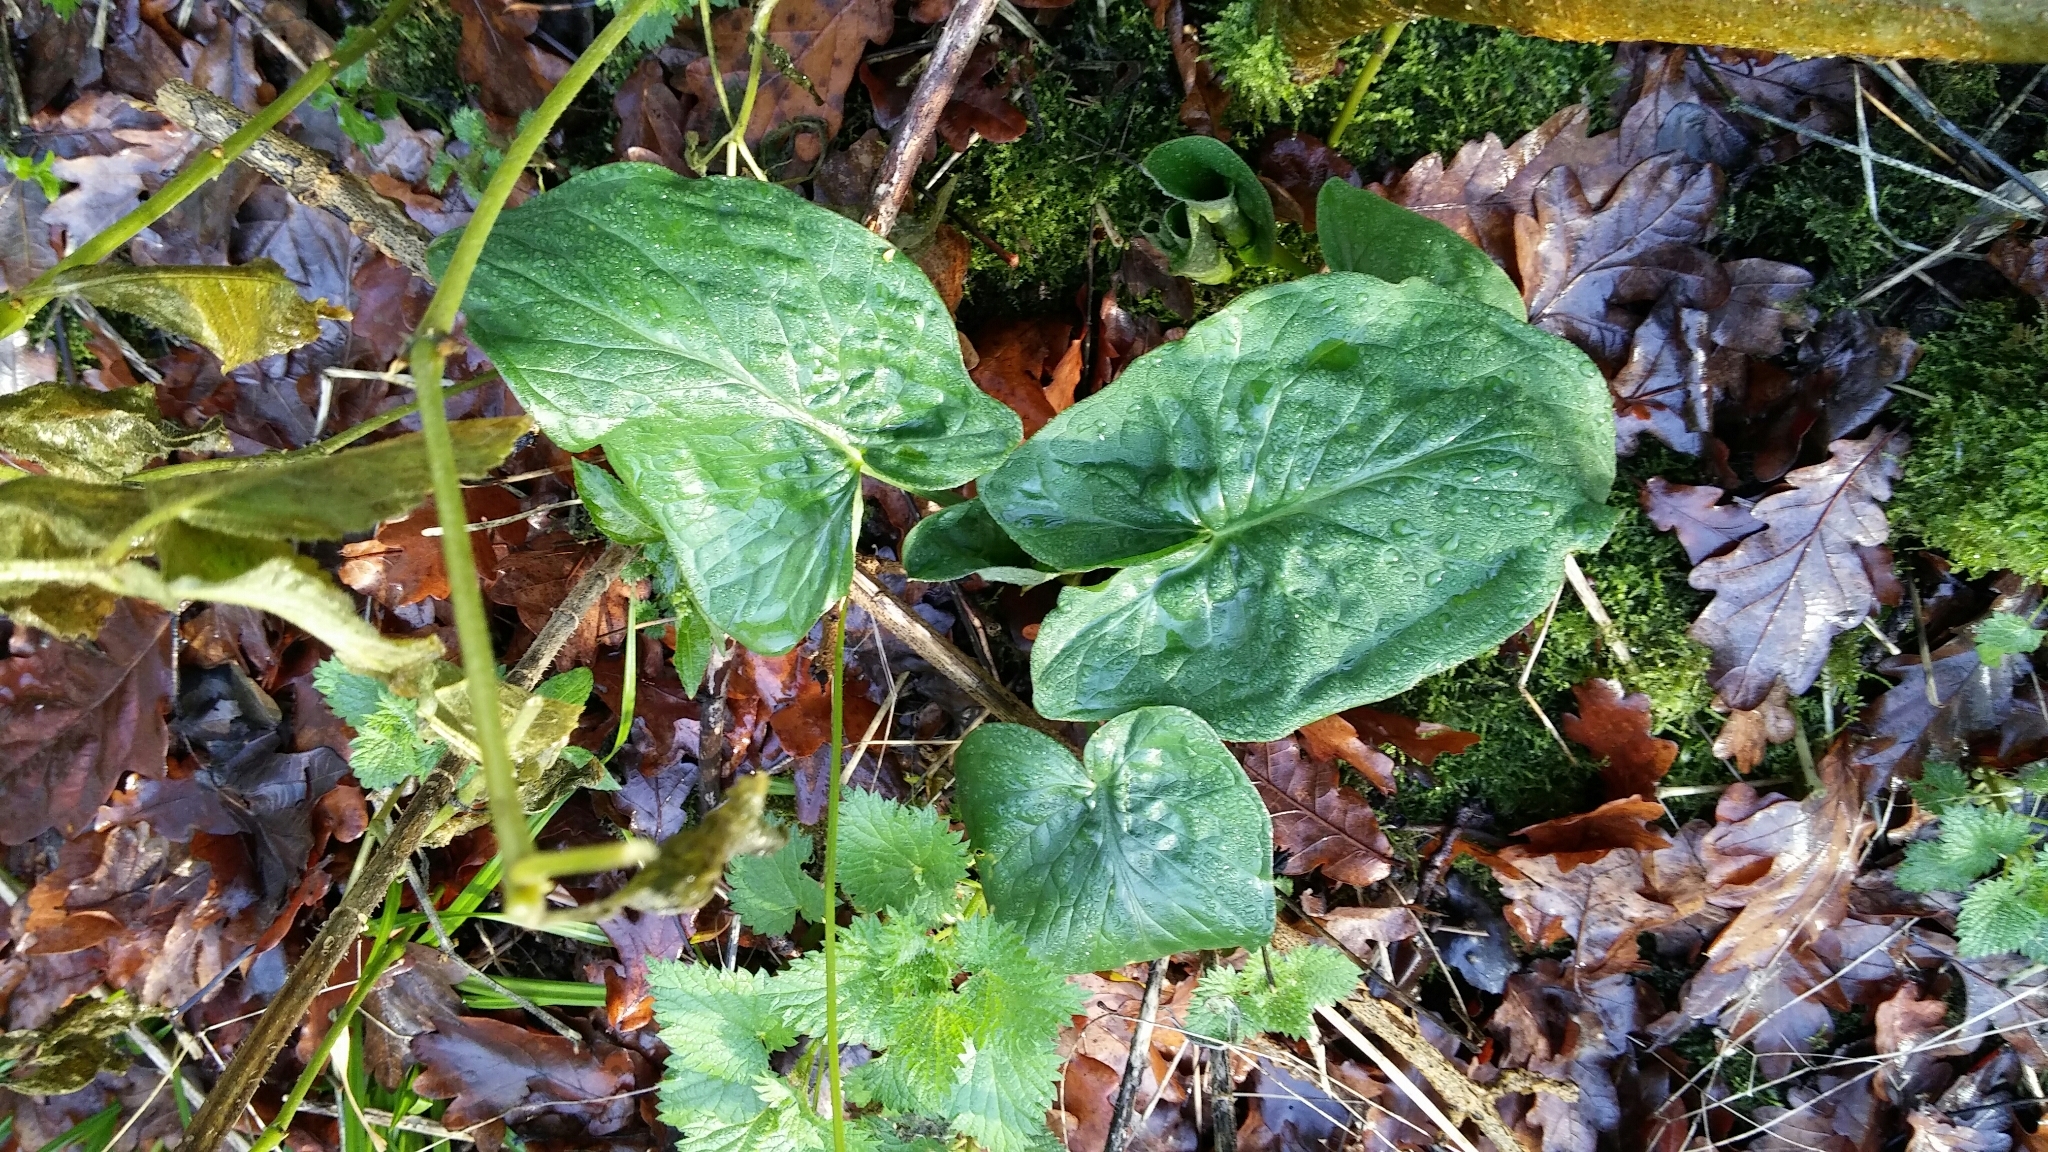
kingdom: Plantae
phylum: Tracheophyta
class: Liliopsida
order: Alismatales
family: Araceae
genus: Arum
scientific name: Arum maculatum
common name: Lords-and-ladies
